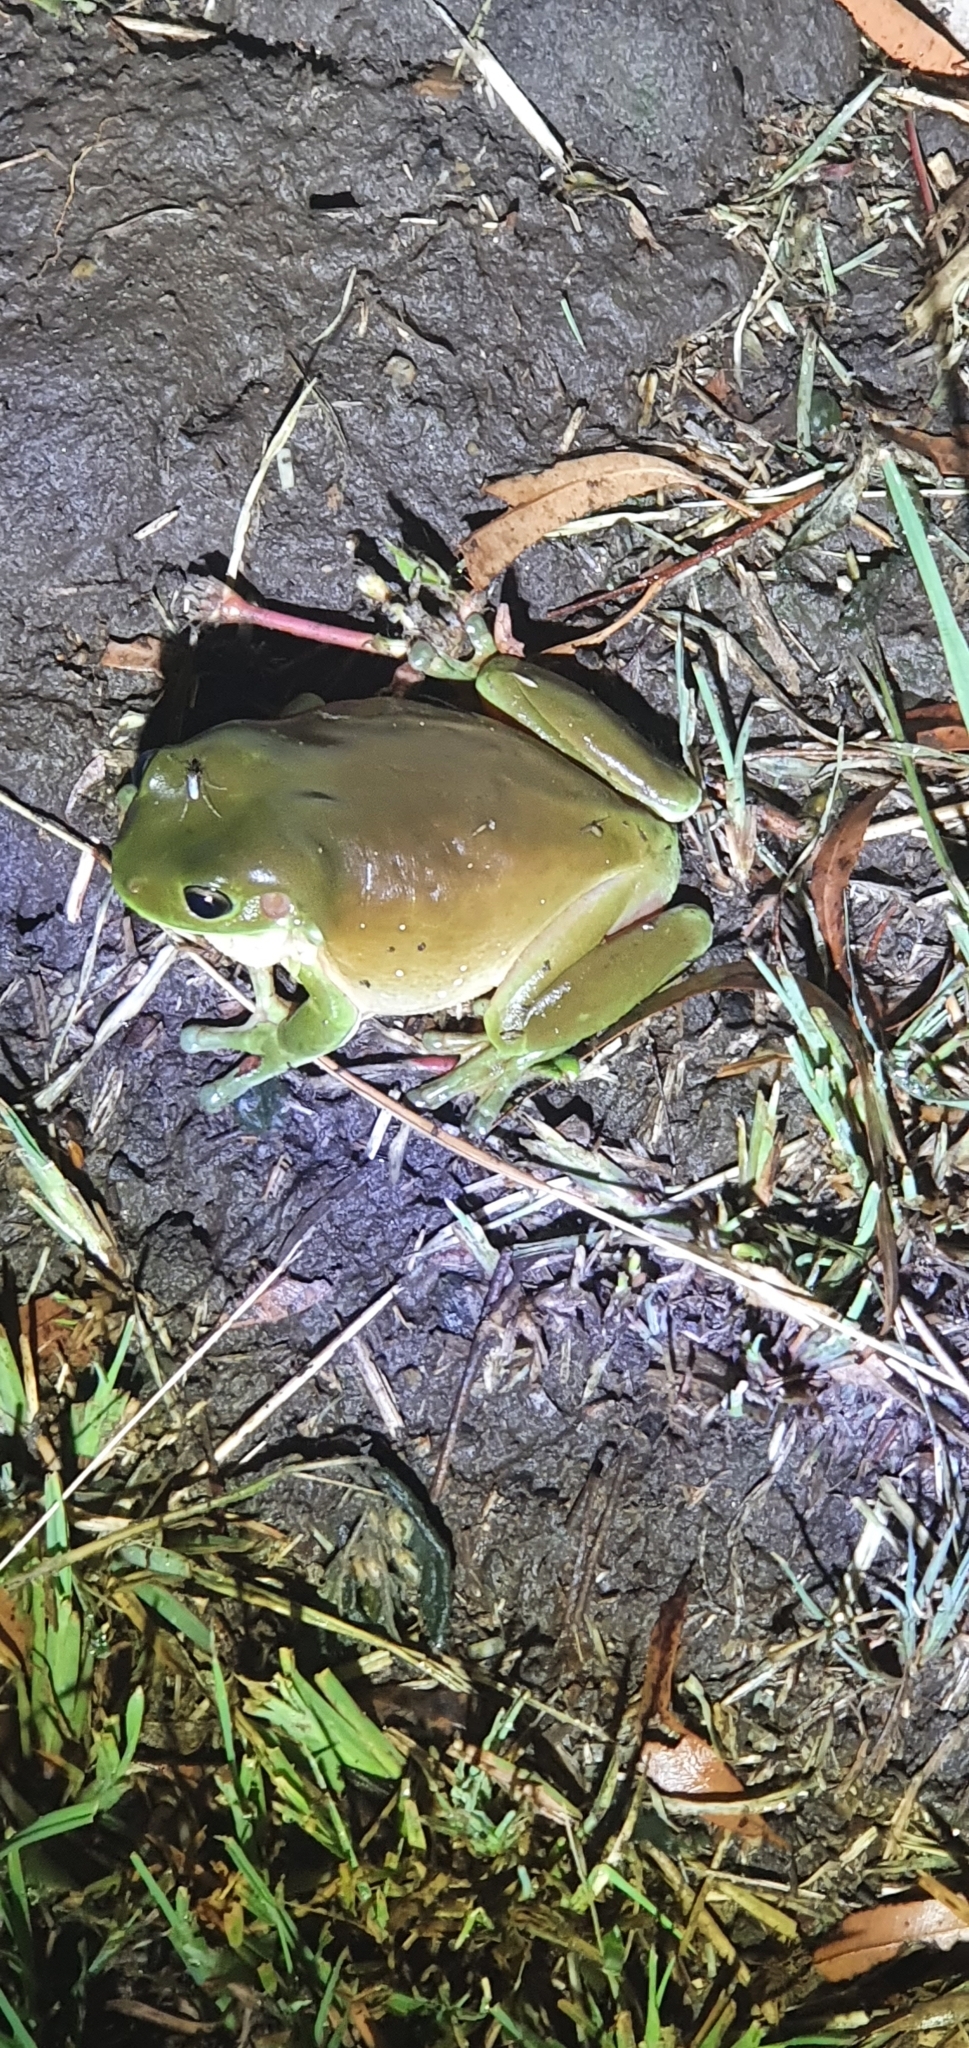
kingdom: Animalia
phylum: Chordata
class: Amphibia
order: Anura
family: Pelodryadidae
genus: Ranoidea
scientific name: Ranoidea caerulea
